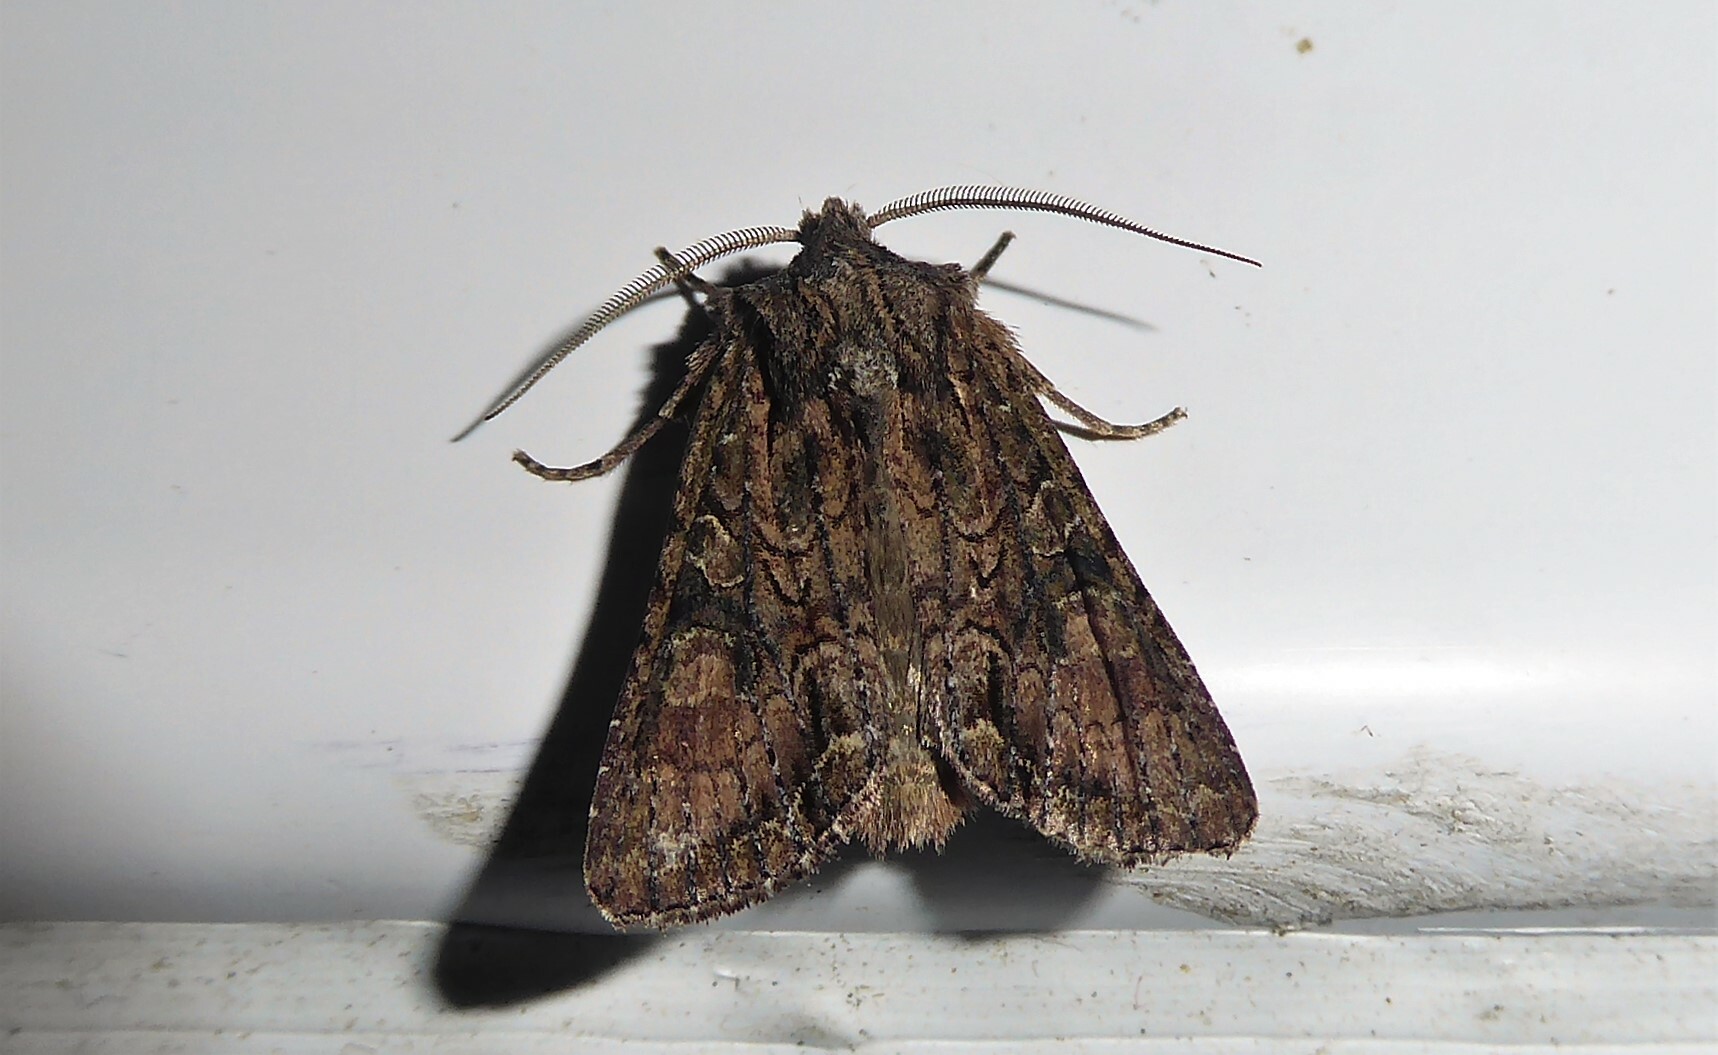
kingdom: Animalia
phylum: Arthropoda
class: Insecta
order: Lepidoptera
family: Noctuidae
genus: Ichneutica
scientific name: Ichneutica mutans
